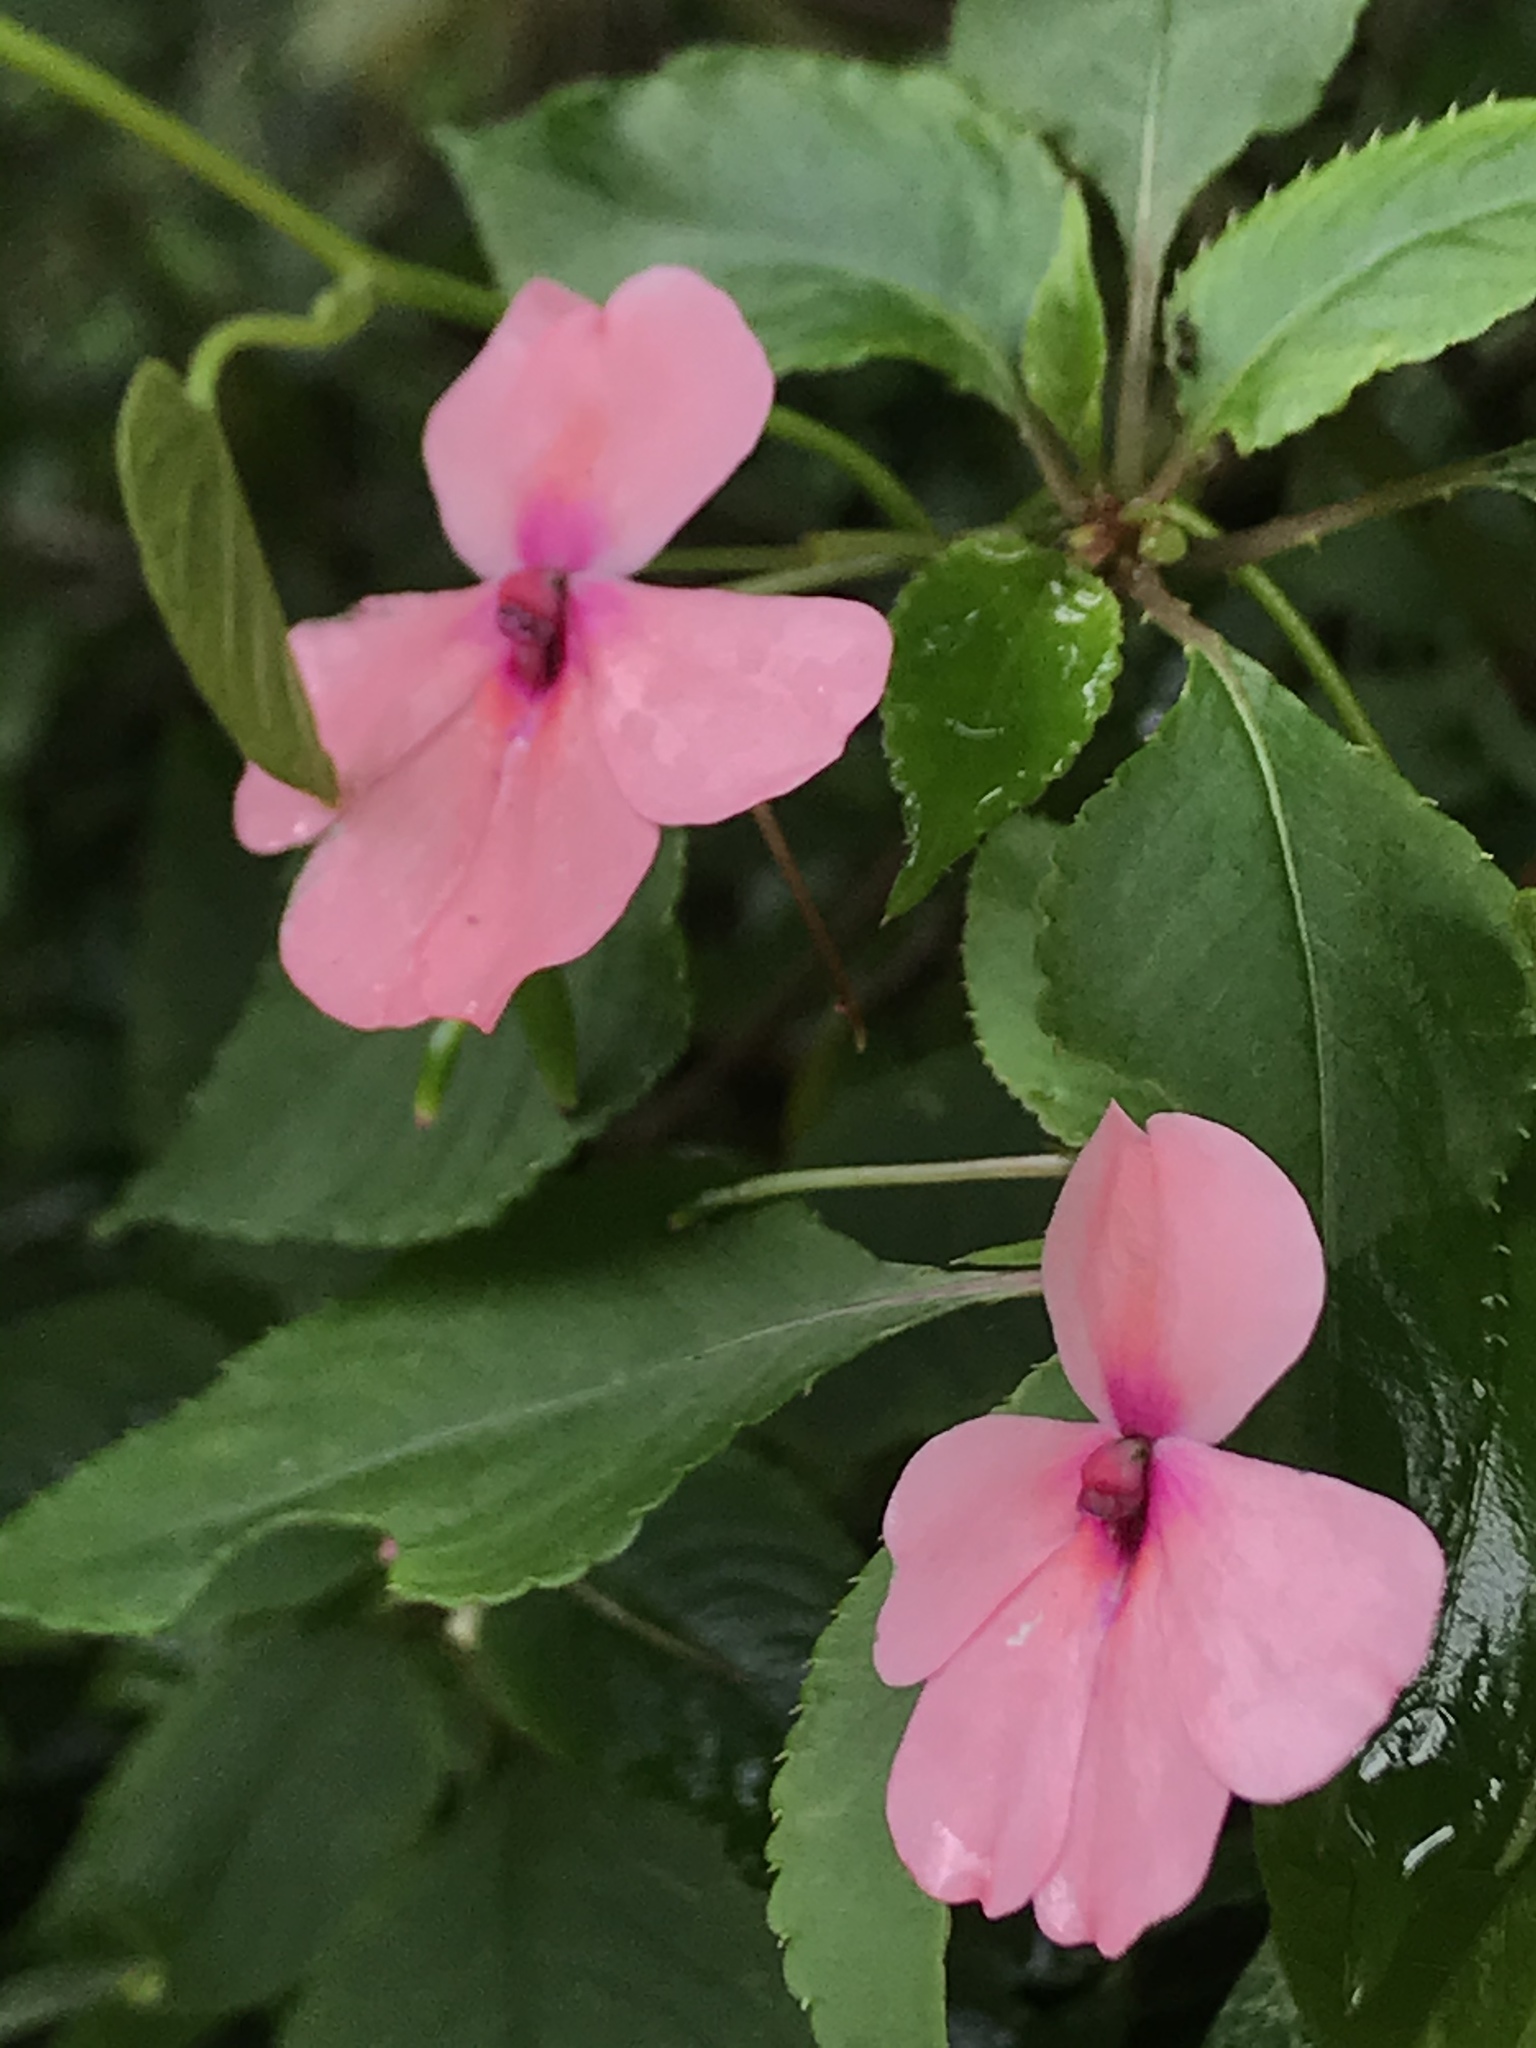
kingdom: Plantae
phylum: Tracheophyta
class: Magnoliopsida
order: Ericales
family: Balsaminaceae
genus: Impatiens
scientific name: Impatiens walleriana
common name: Buzzy lizzy
